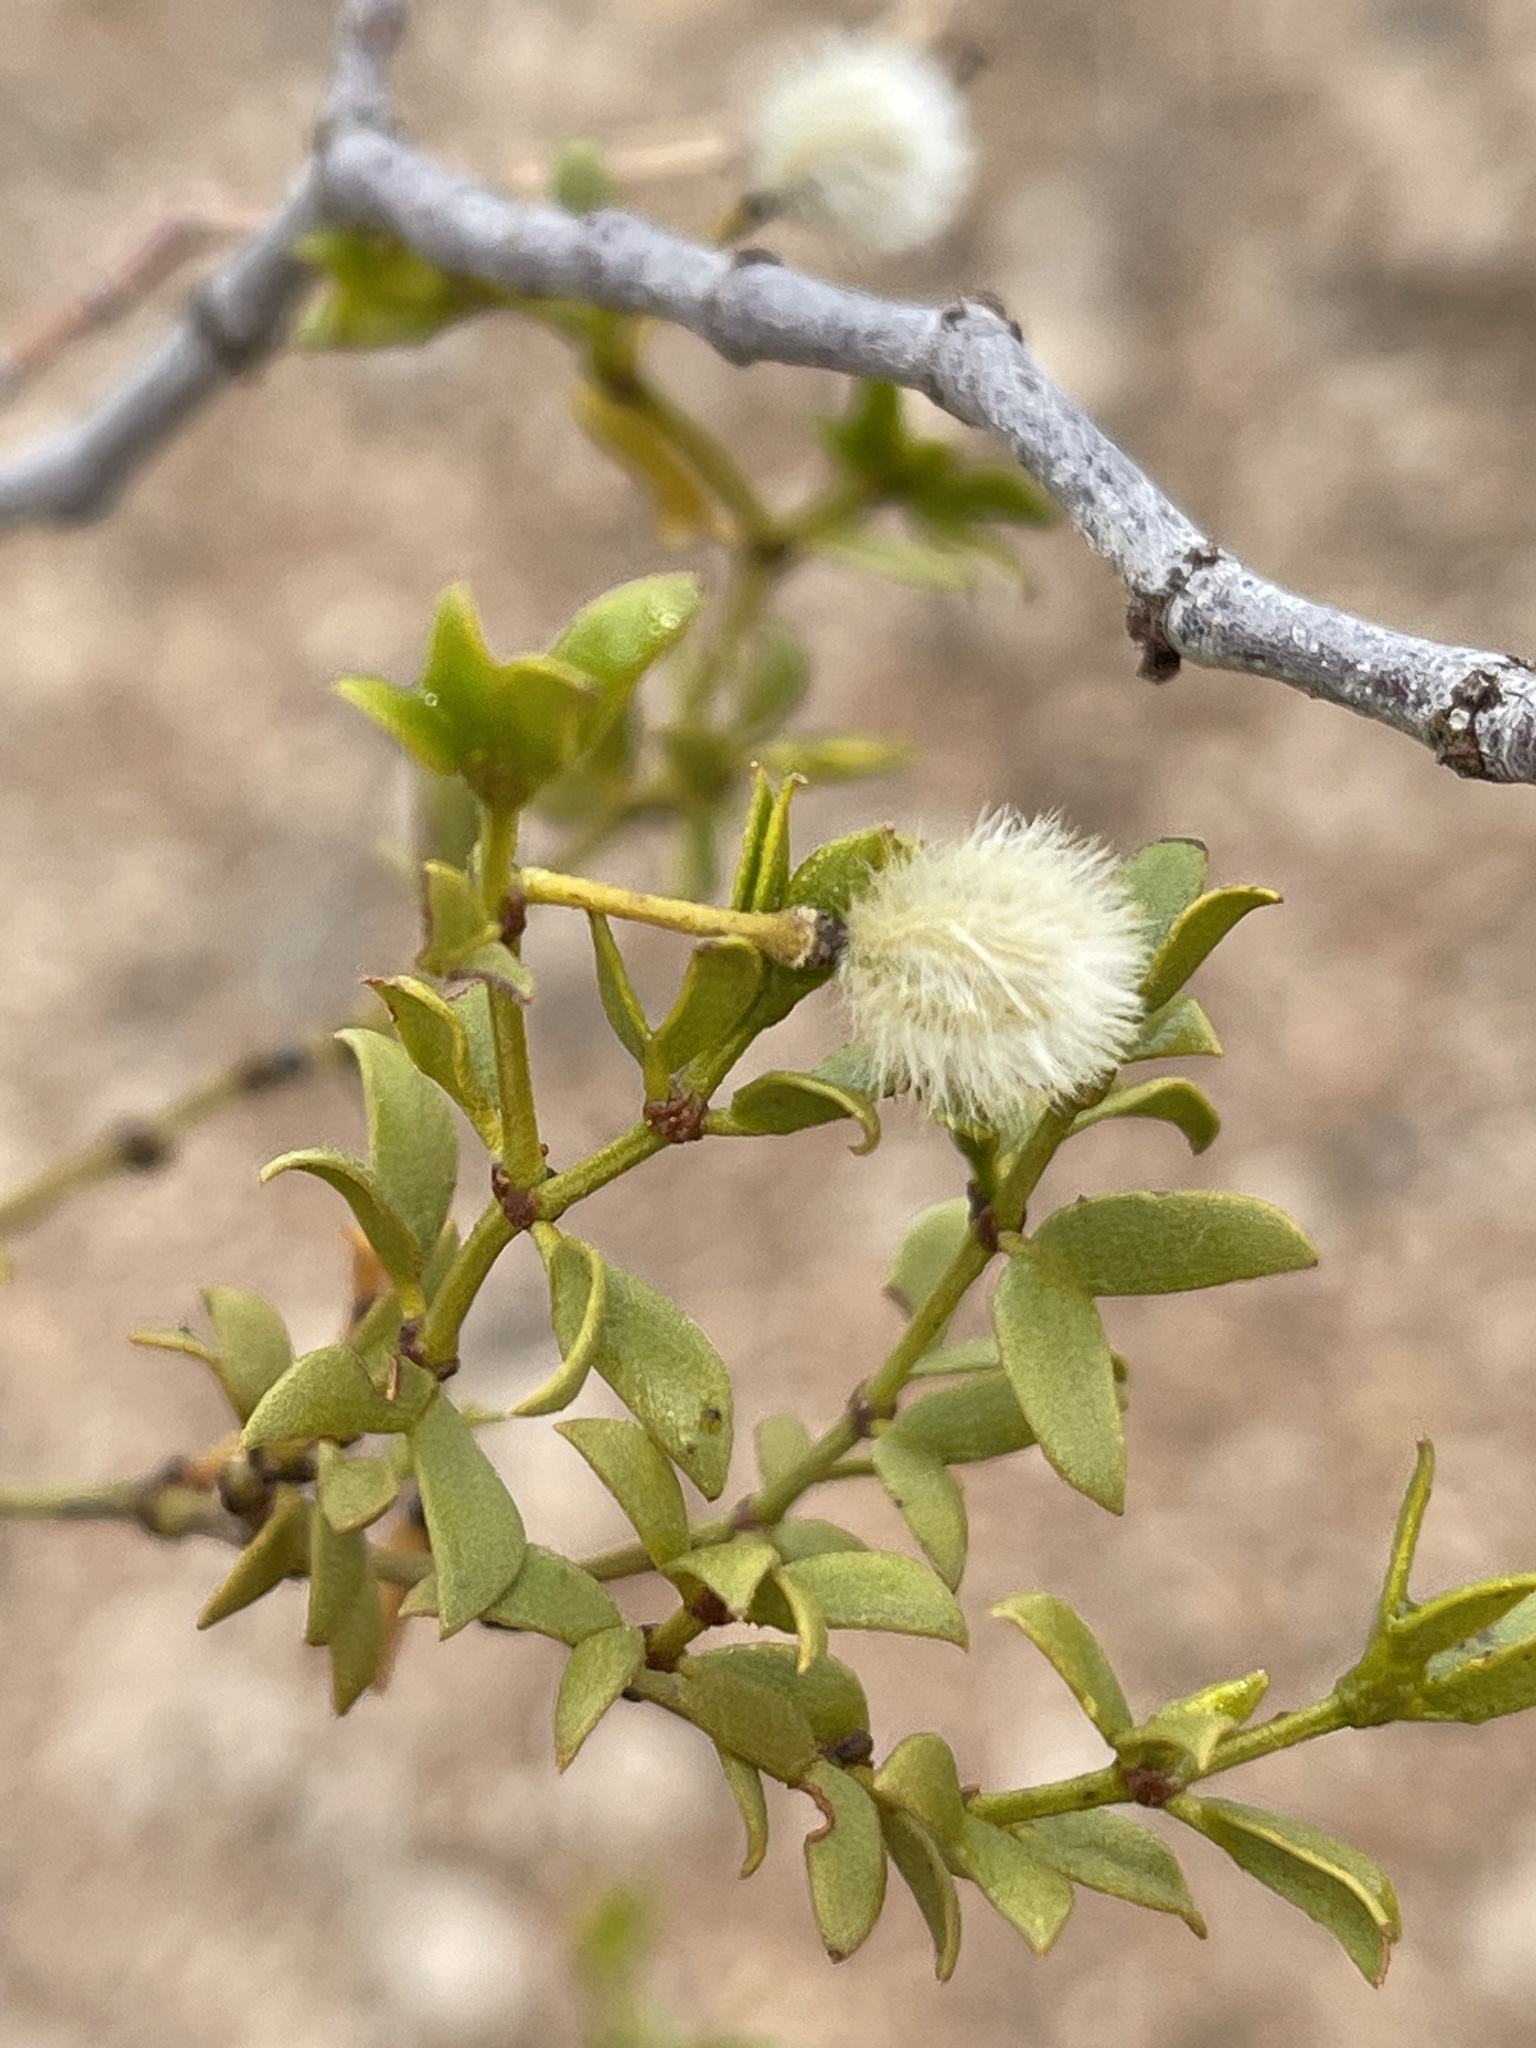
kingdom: Plantae
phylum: Tracheophyta
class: Magnoliopsida
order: Zygophyllales
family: Zygophyllaceae
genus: Larrea
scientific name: Larrea tridentata
